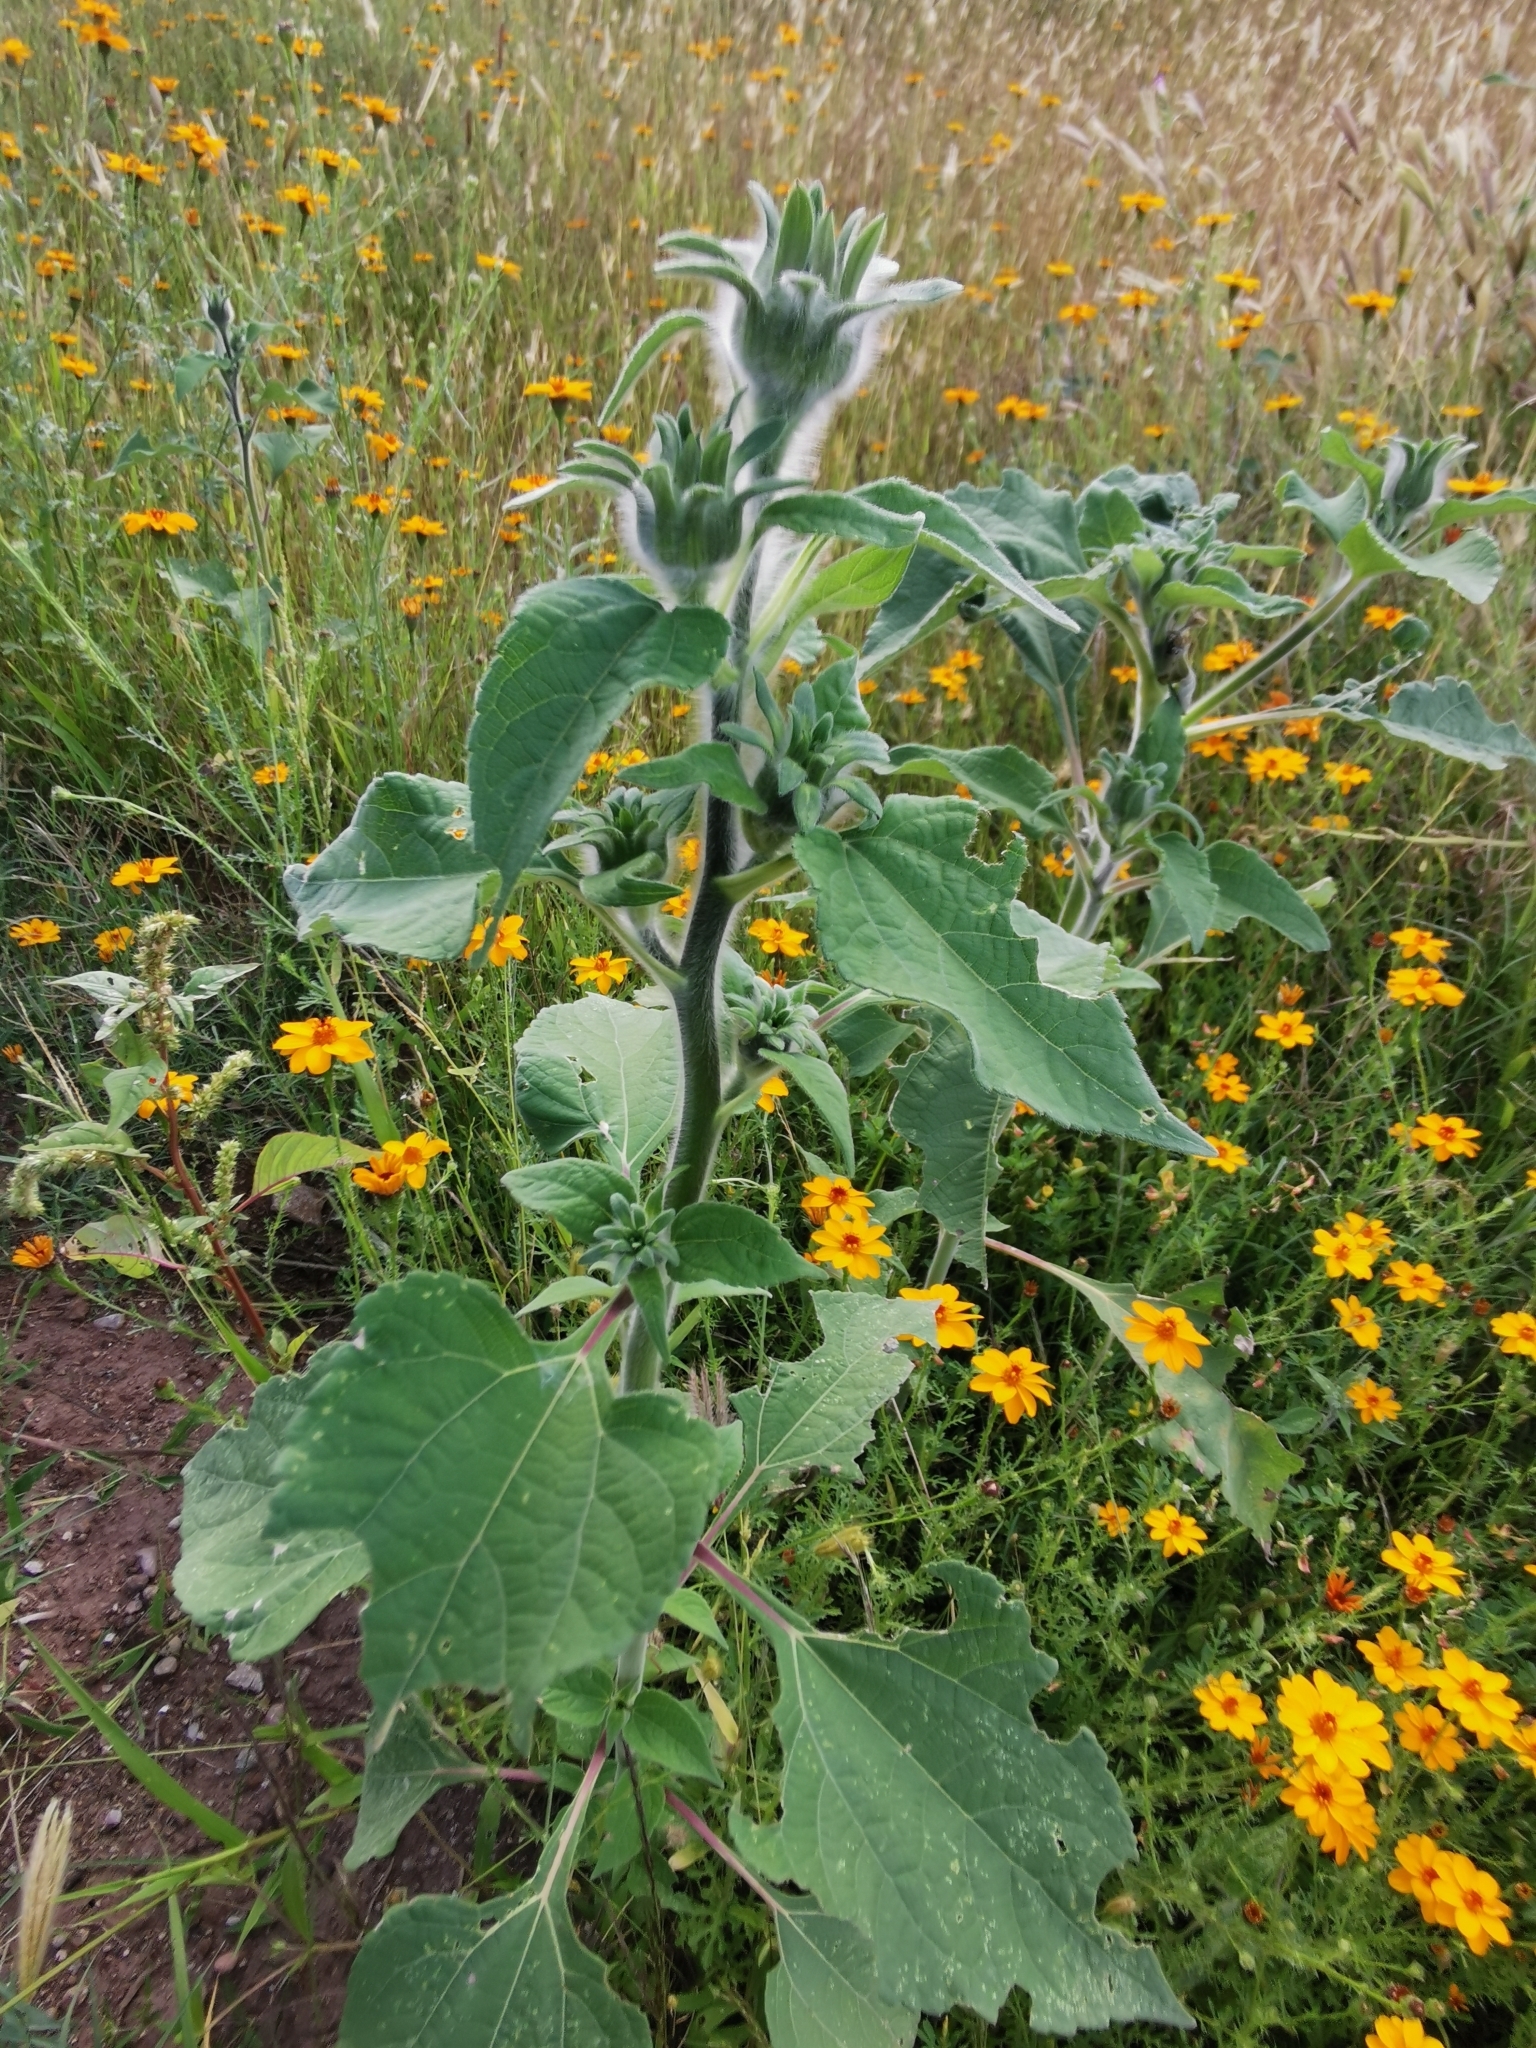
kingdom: Plantae
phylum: Tracheophyta
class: Magnoliopsida
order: Asterales
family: Asteraceae
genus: Tithonia
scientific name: Tithonia tubaeformis
